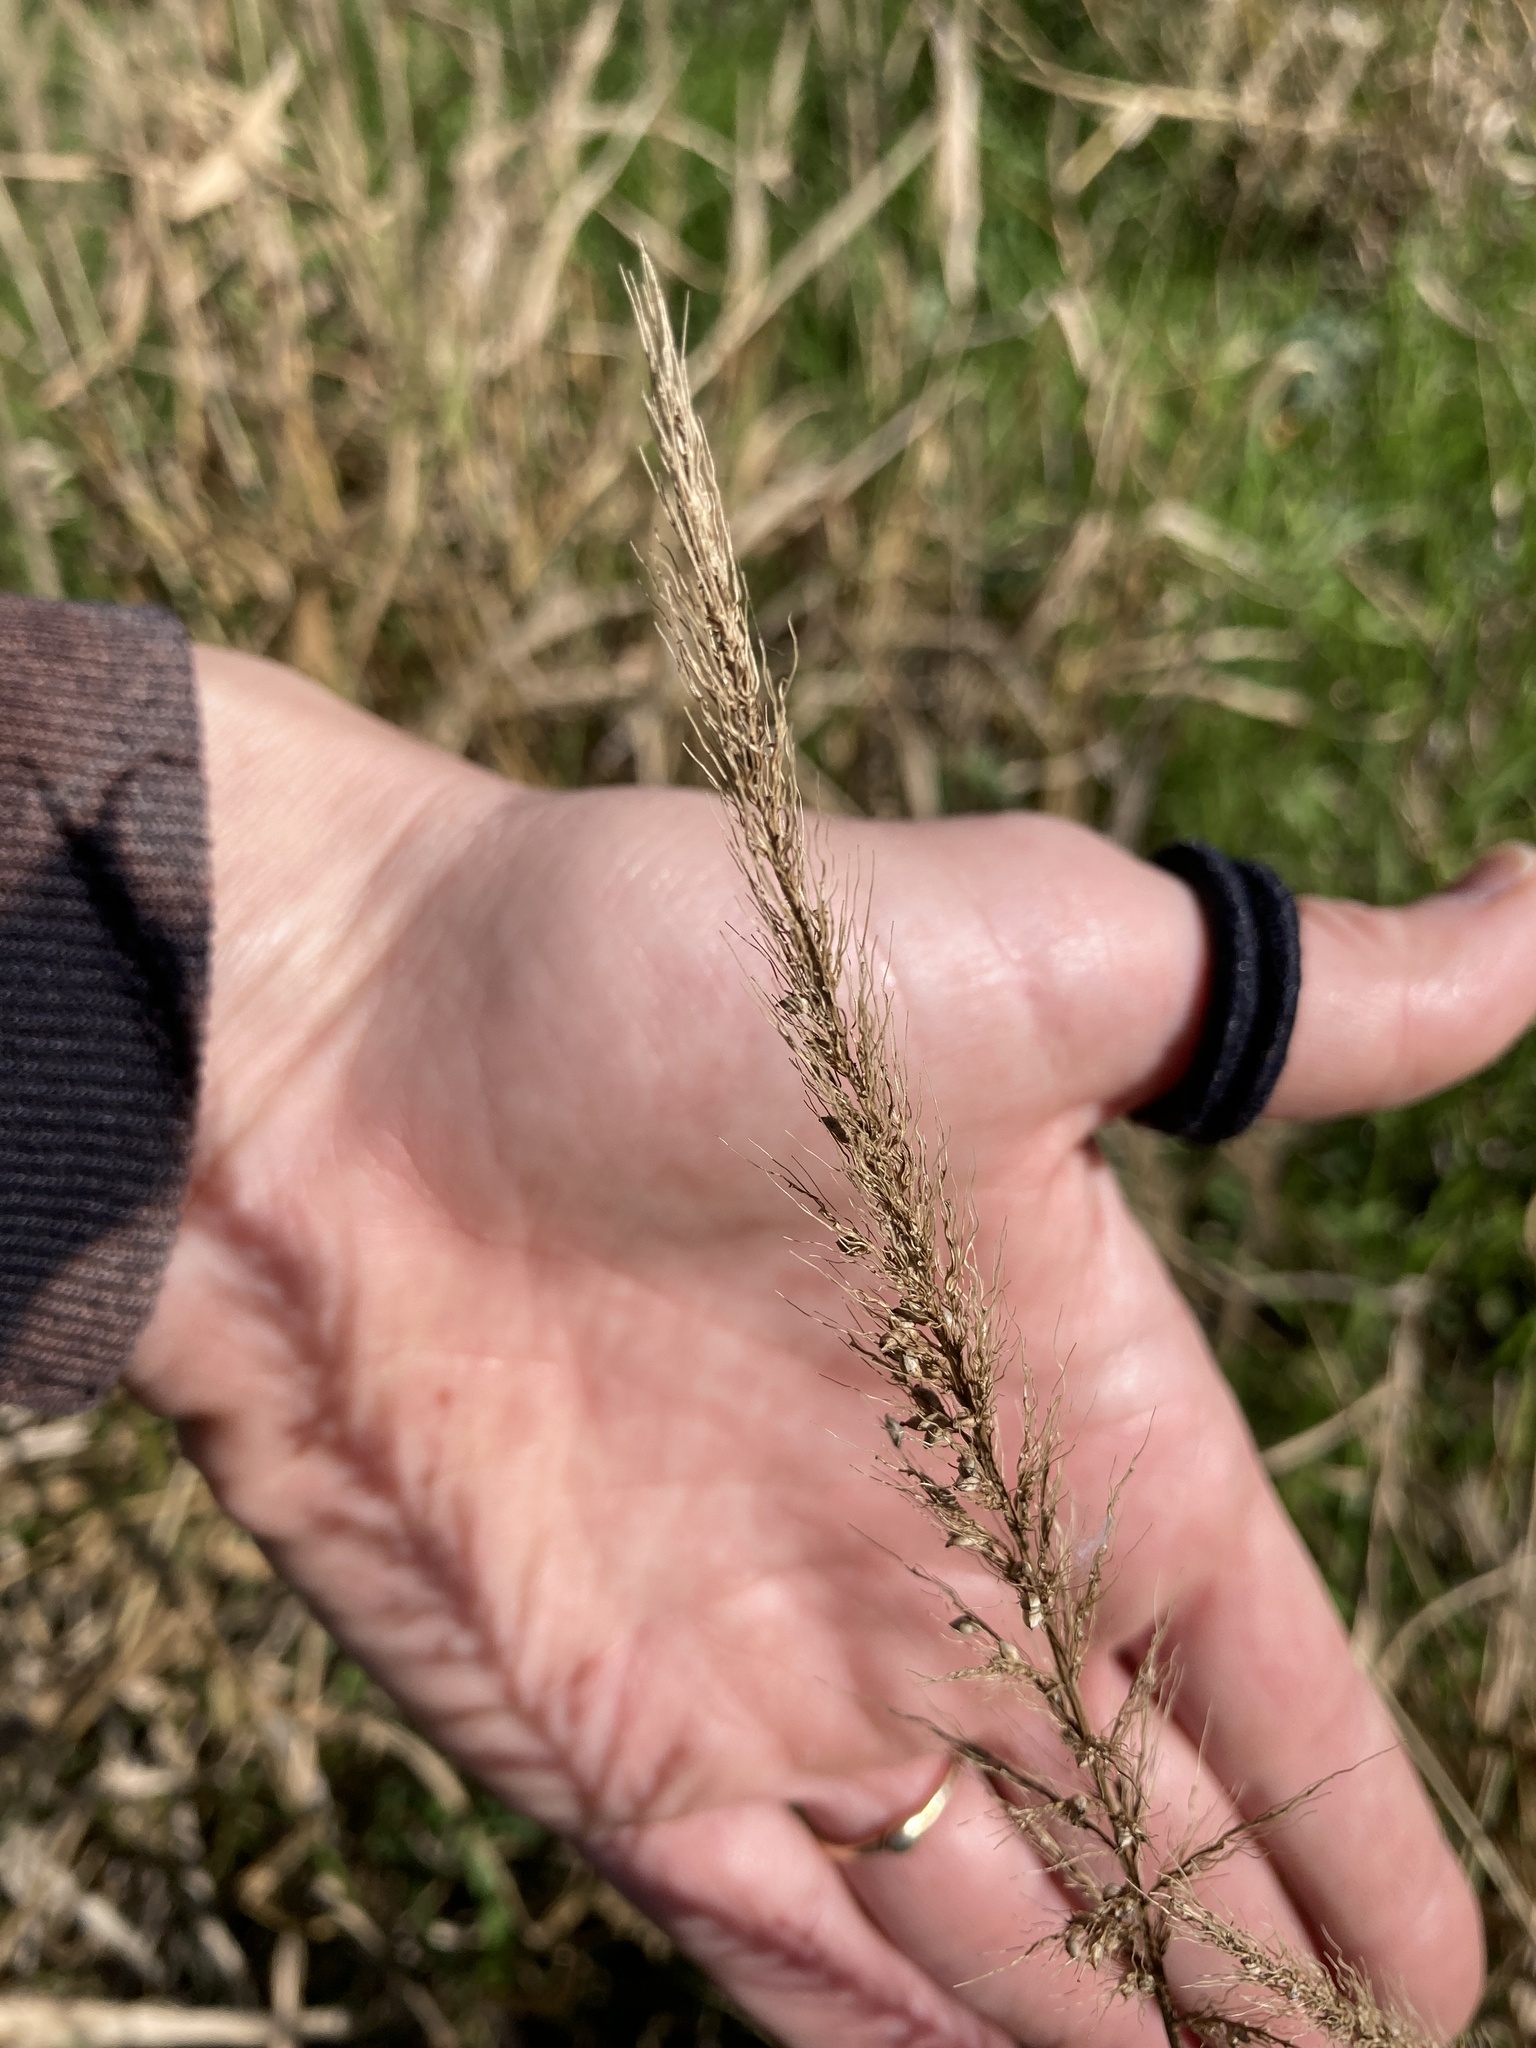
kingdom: Plantae
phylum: Tracheophyta
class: Liliopsida
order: Poales
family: Poaceae
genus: Setaria
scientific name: Setaria scheelei
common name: Southwestern bristle grass
